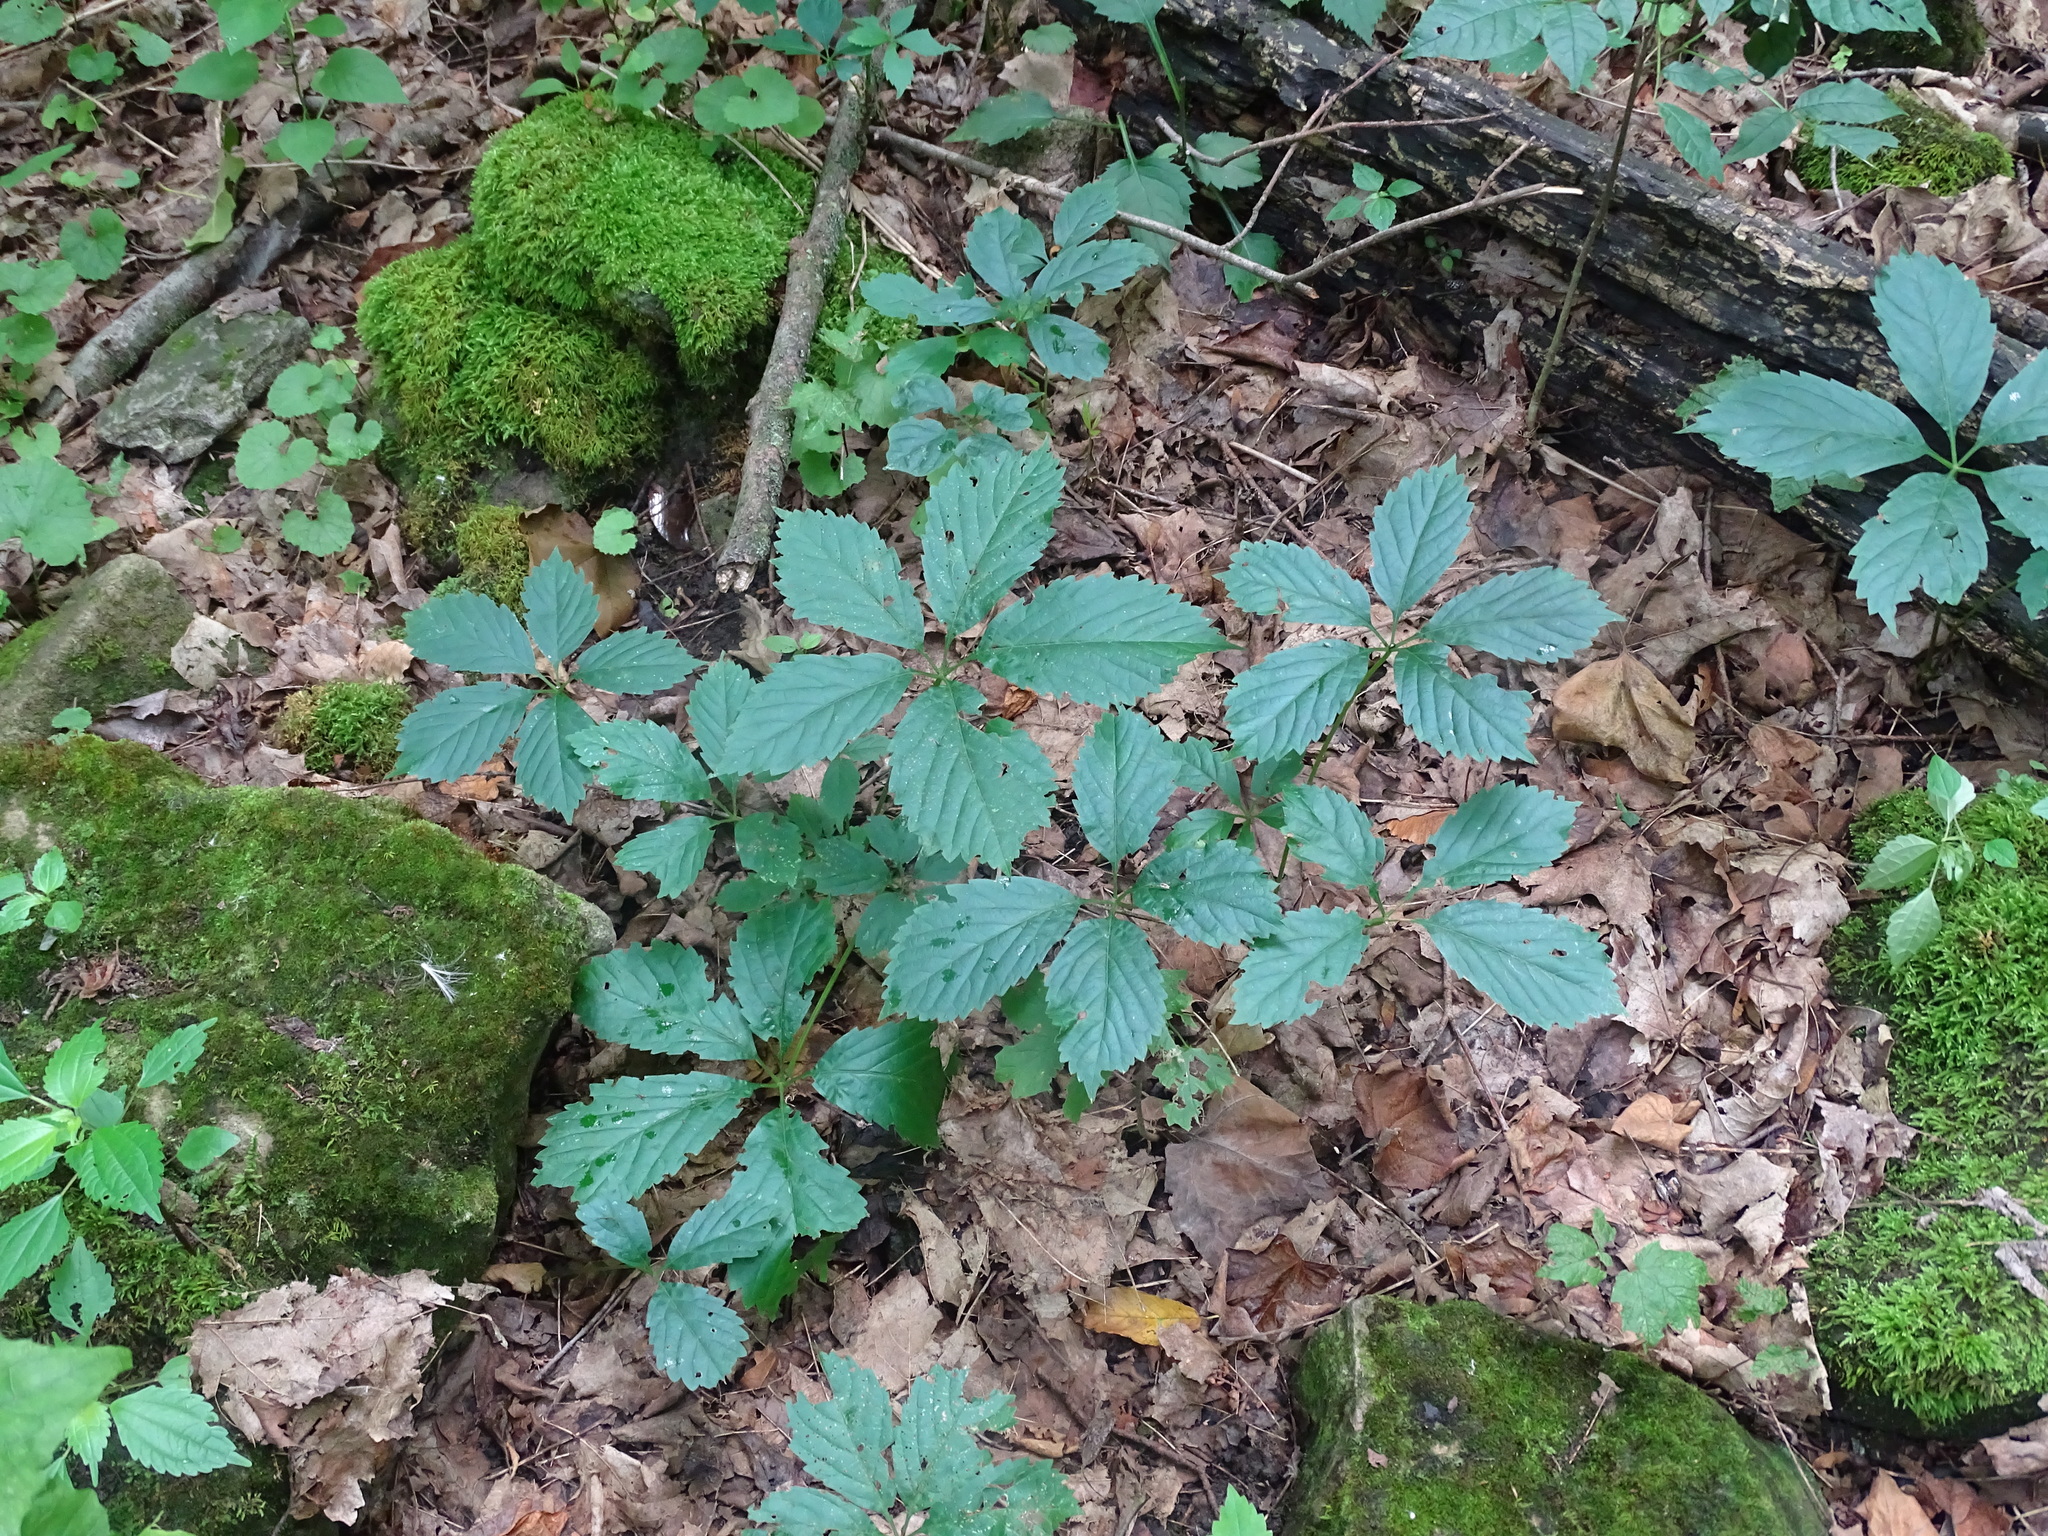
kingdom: Plantae
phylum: Tracheophyta
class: Magnoliopsida
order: Vitales
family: Vitaceae
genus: Parthenocissus
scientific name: Parthenocissus inserta
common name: False virginia-creeper
